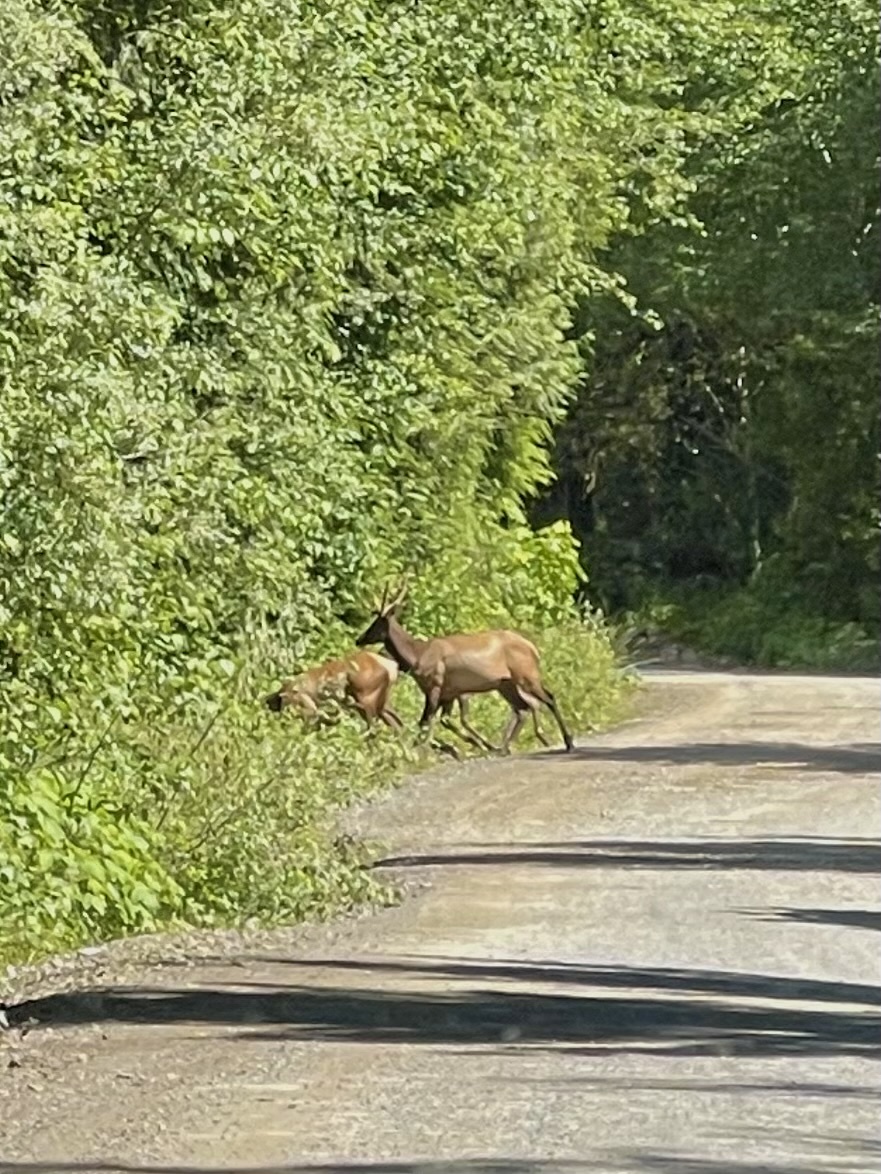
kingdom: Animalia
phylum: Chordata
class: Mammalia
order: Artiodactyla
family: Cervidae
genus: Cervus
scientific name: Cervus elaphus
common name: Red deer
